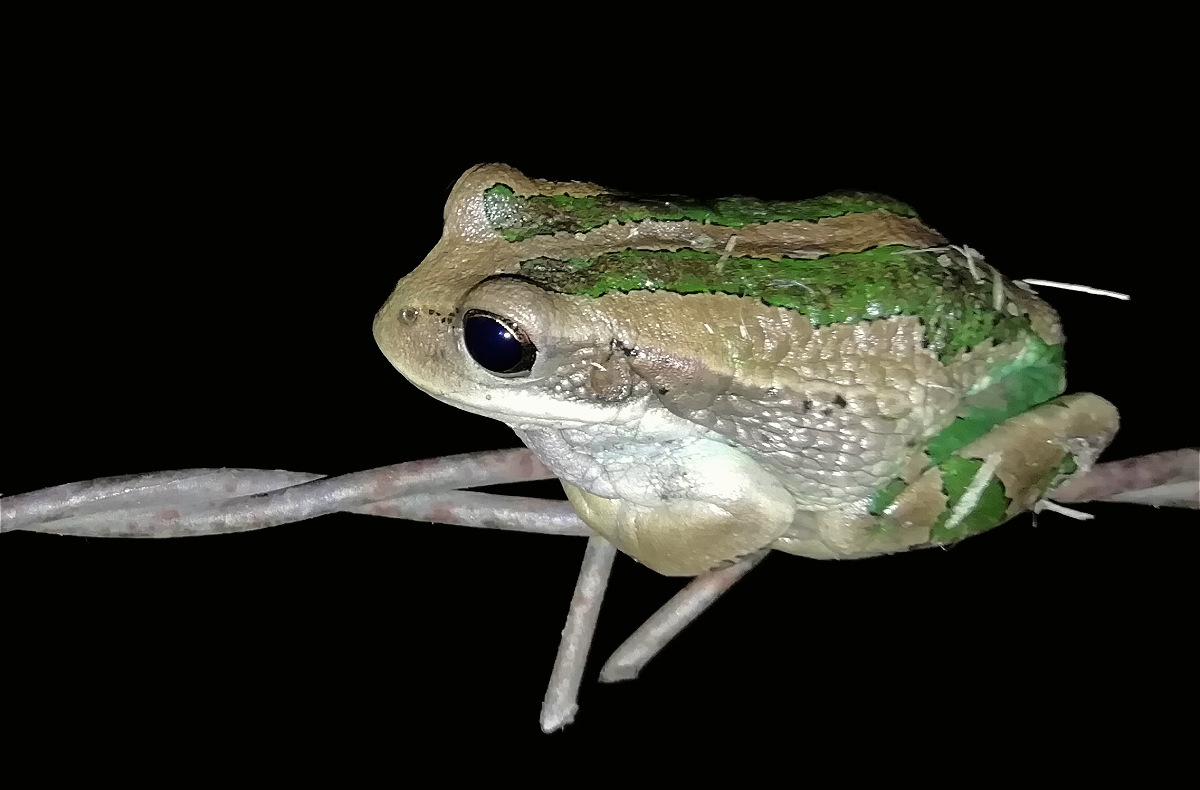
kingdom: Animalia
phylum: Chordata
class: Amphibia
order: Anura
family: Hemiphractidae
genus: Gastrotheca
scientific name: Gastrotheca cuencana
